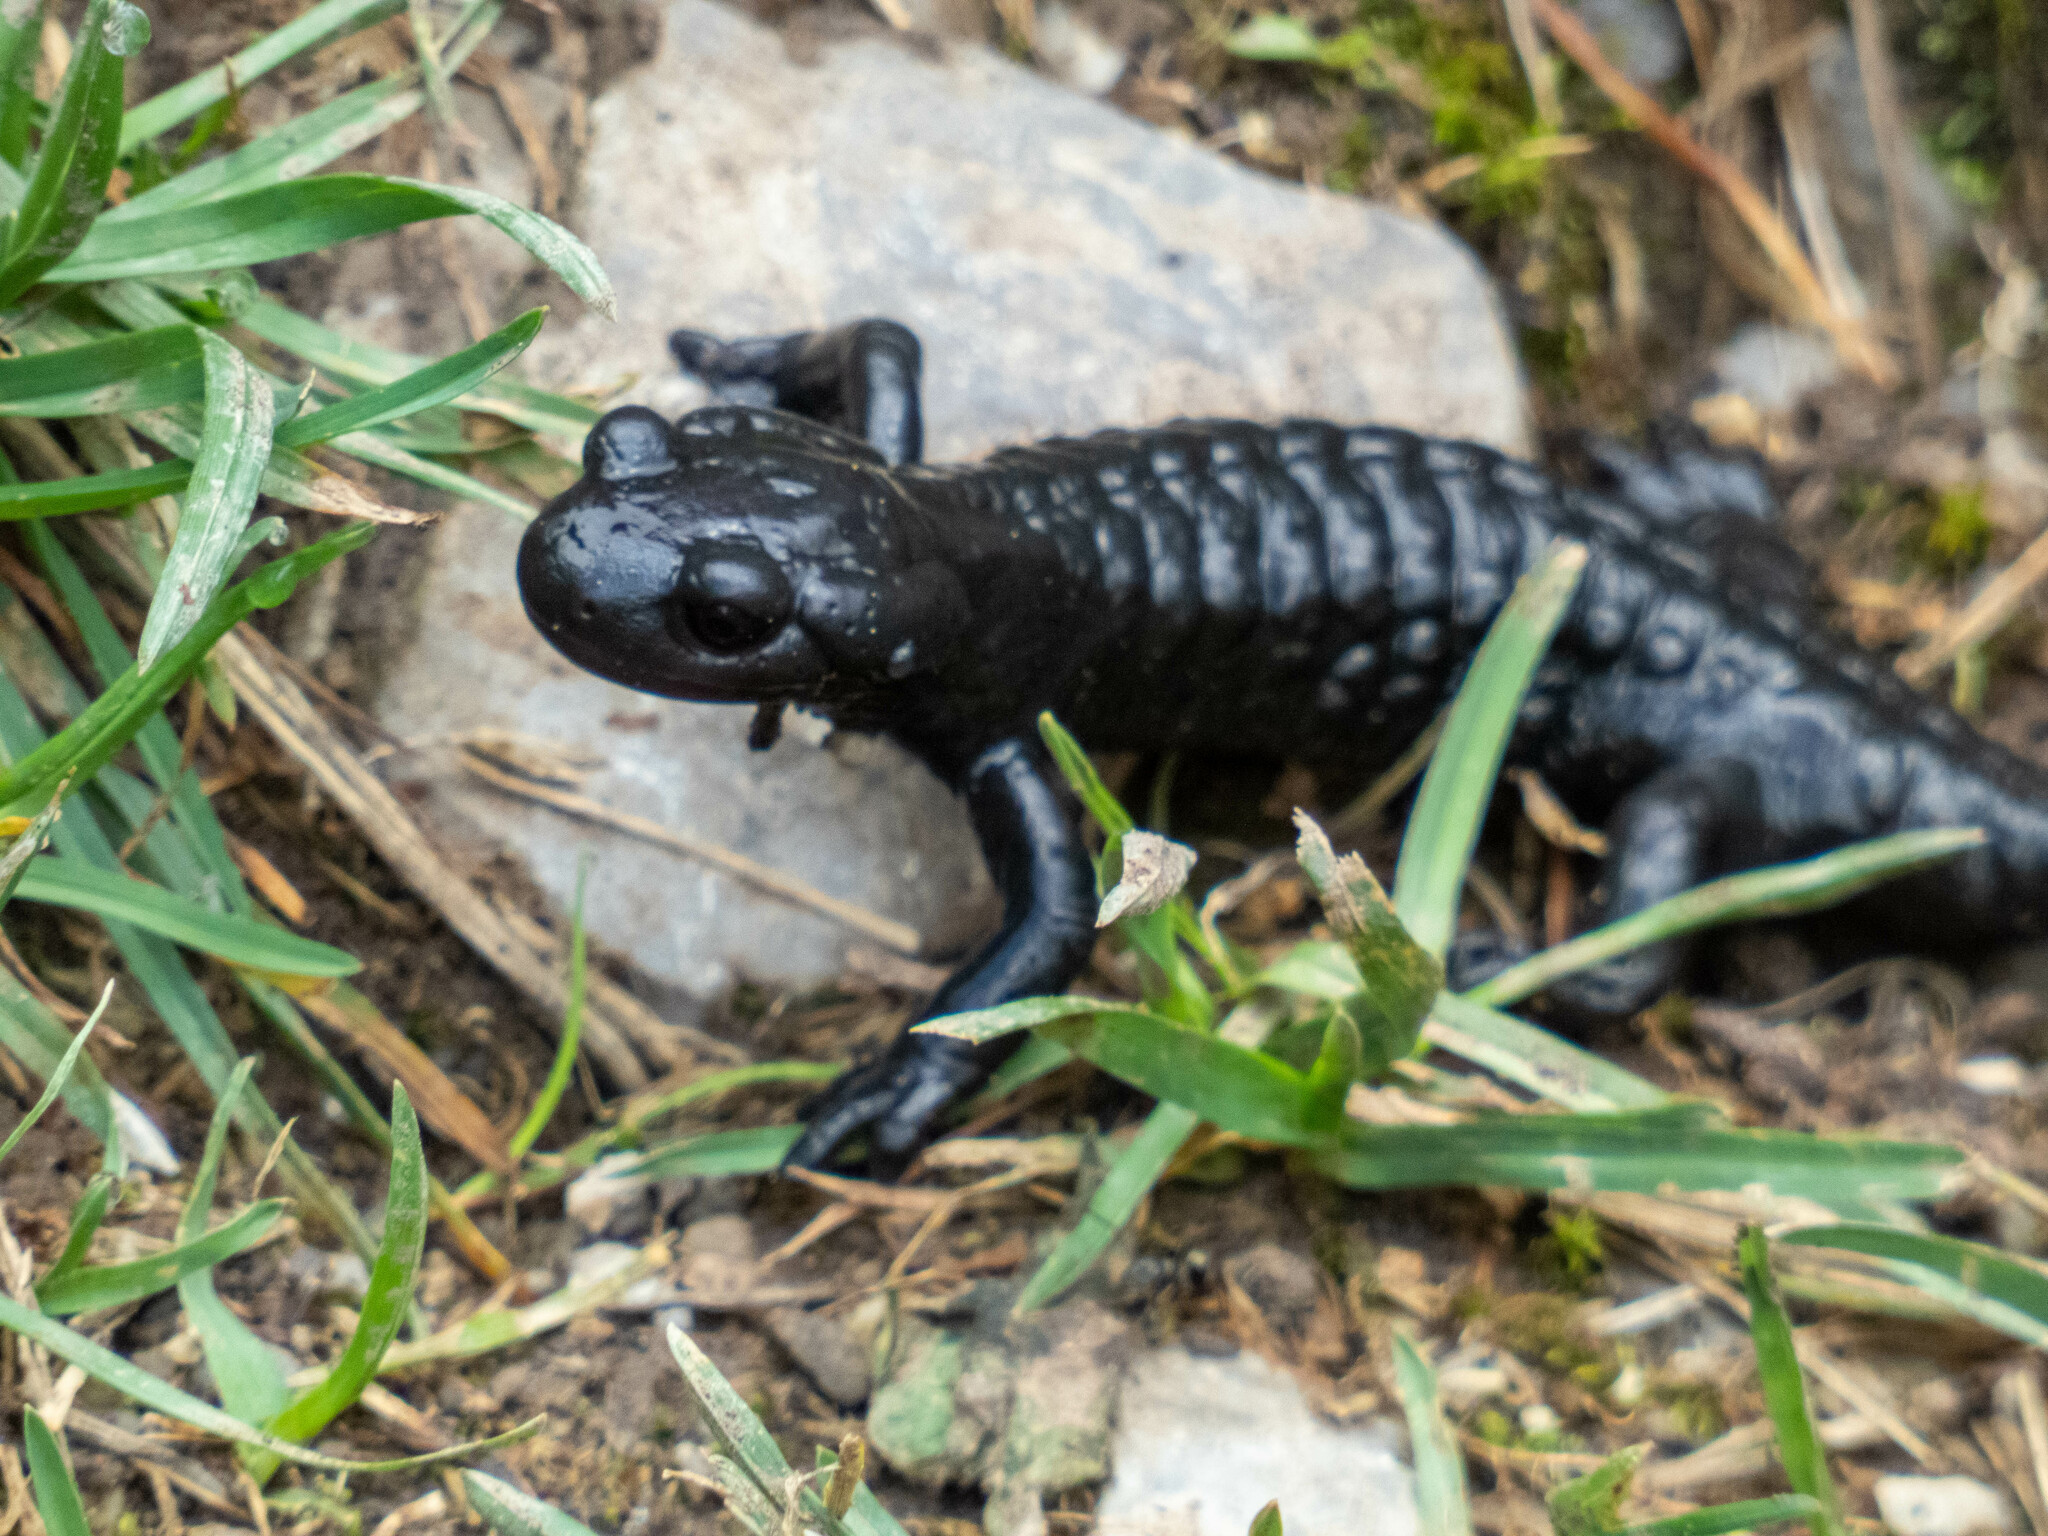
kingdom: Animalia
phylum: Chordata
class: Amphibia
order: Caudata
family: Salamandridae
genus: Salamandra
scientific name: Salamandra atra
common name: Alpine salamander
